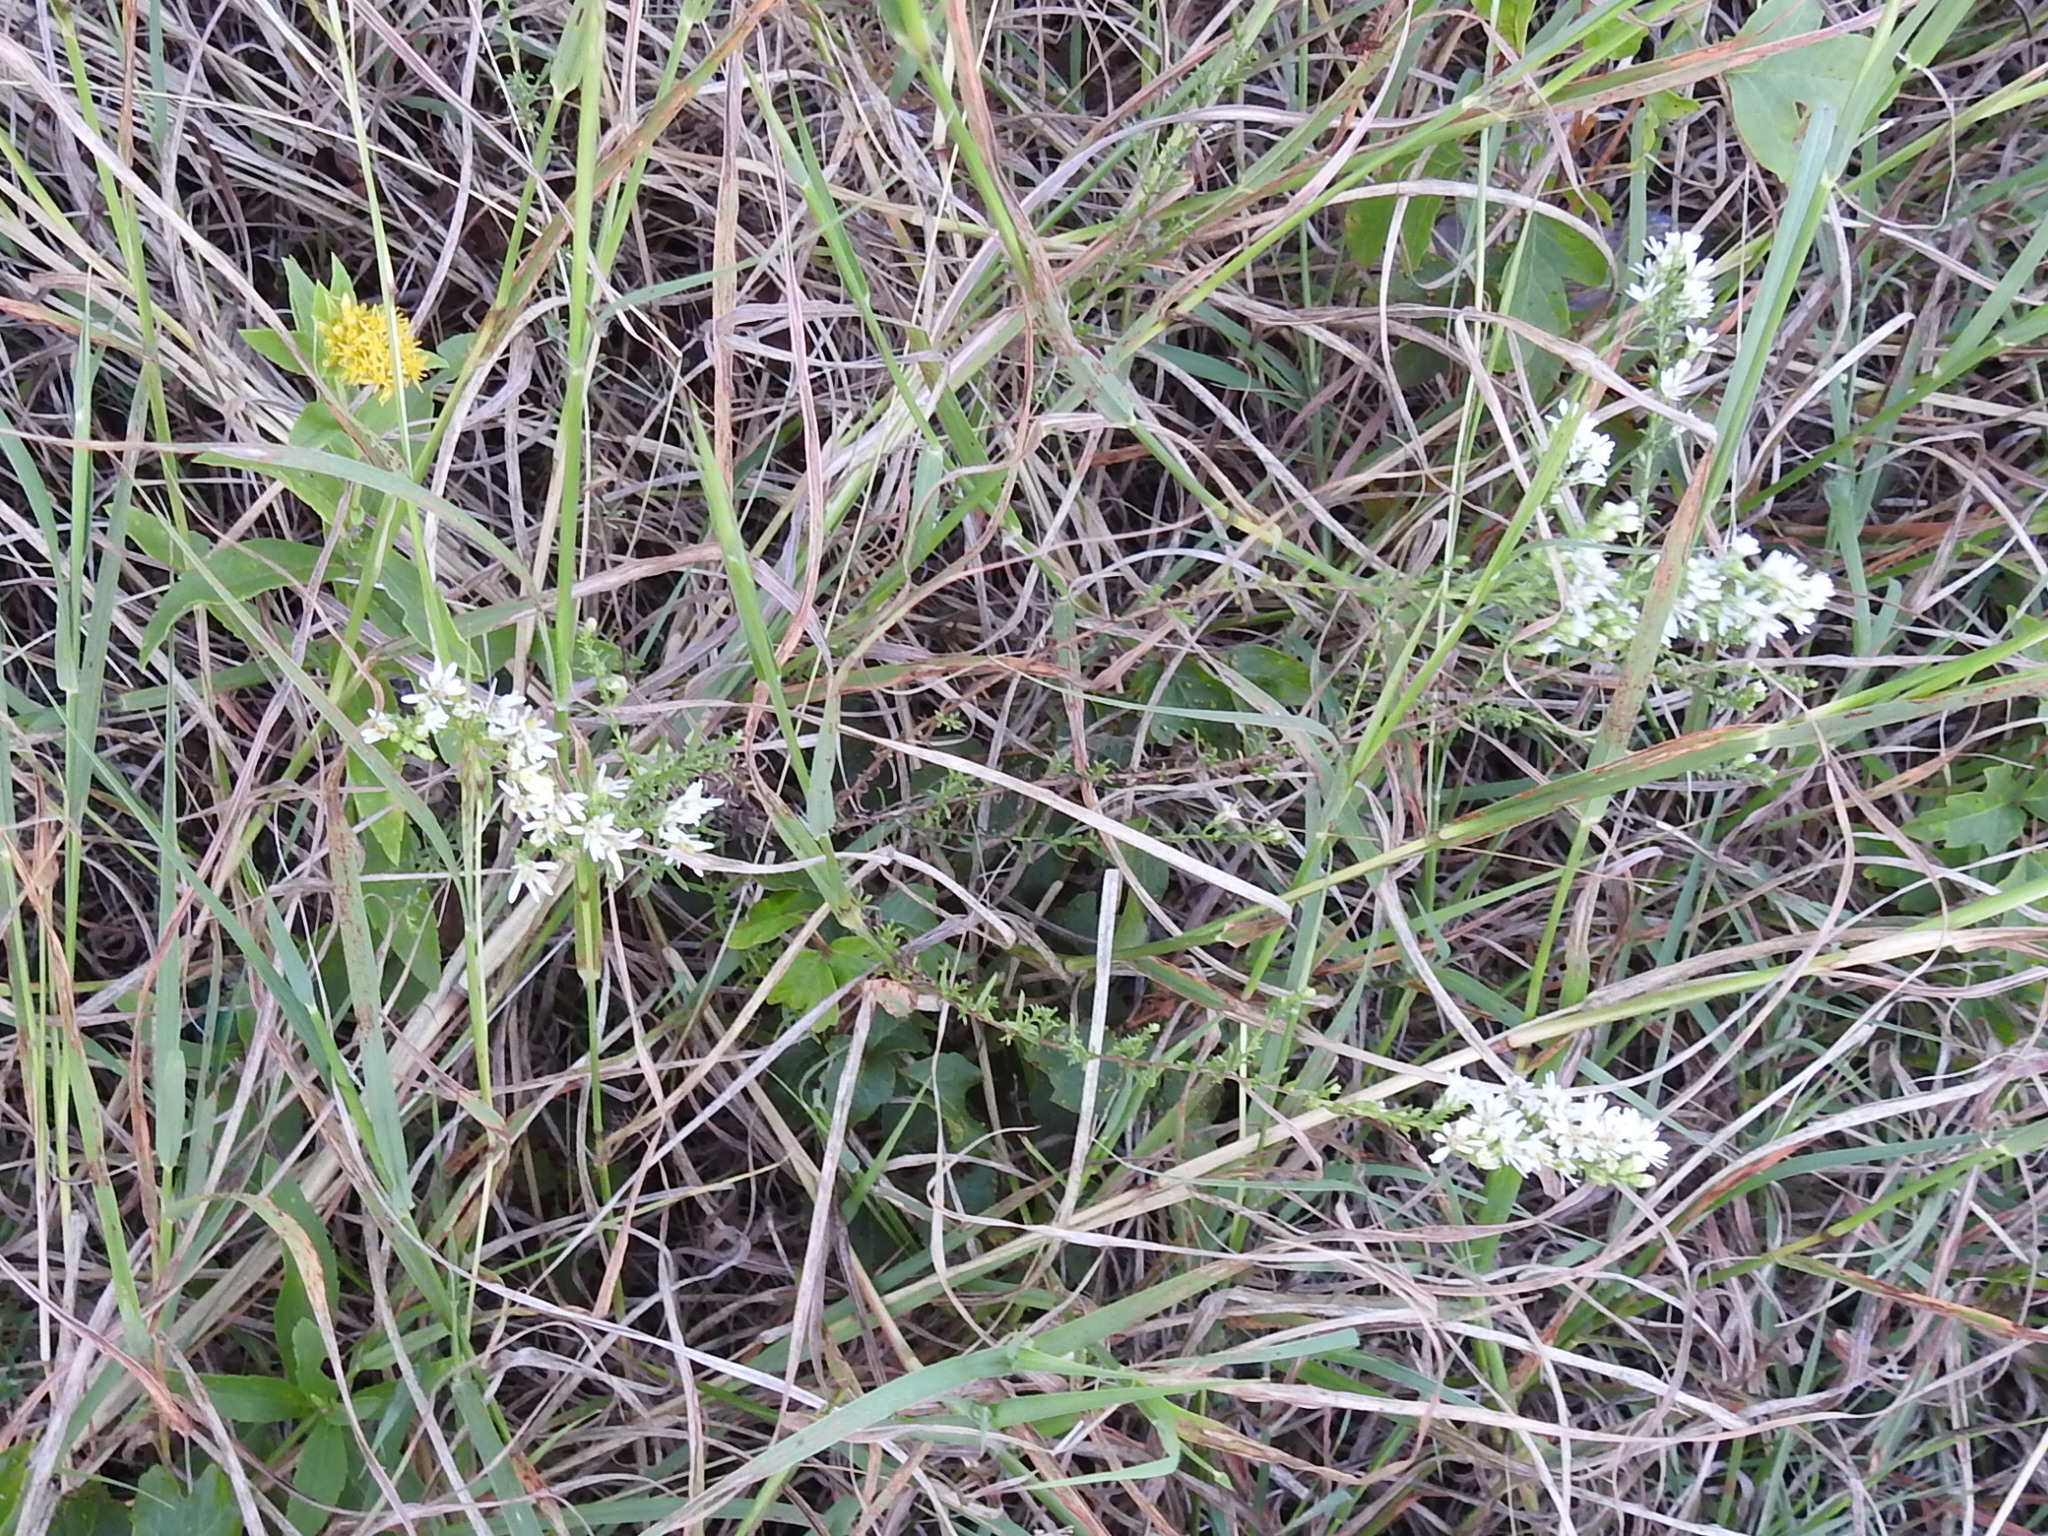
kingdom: Plantae
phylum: Tracheophyta
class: Magnoliopsida
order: Asterales
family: Asteraceae
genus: Symphyotrichum
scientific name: Symphyotrichum ericoides
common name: Heath aster
